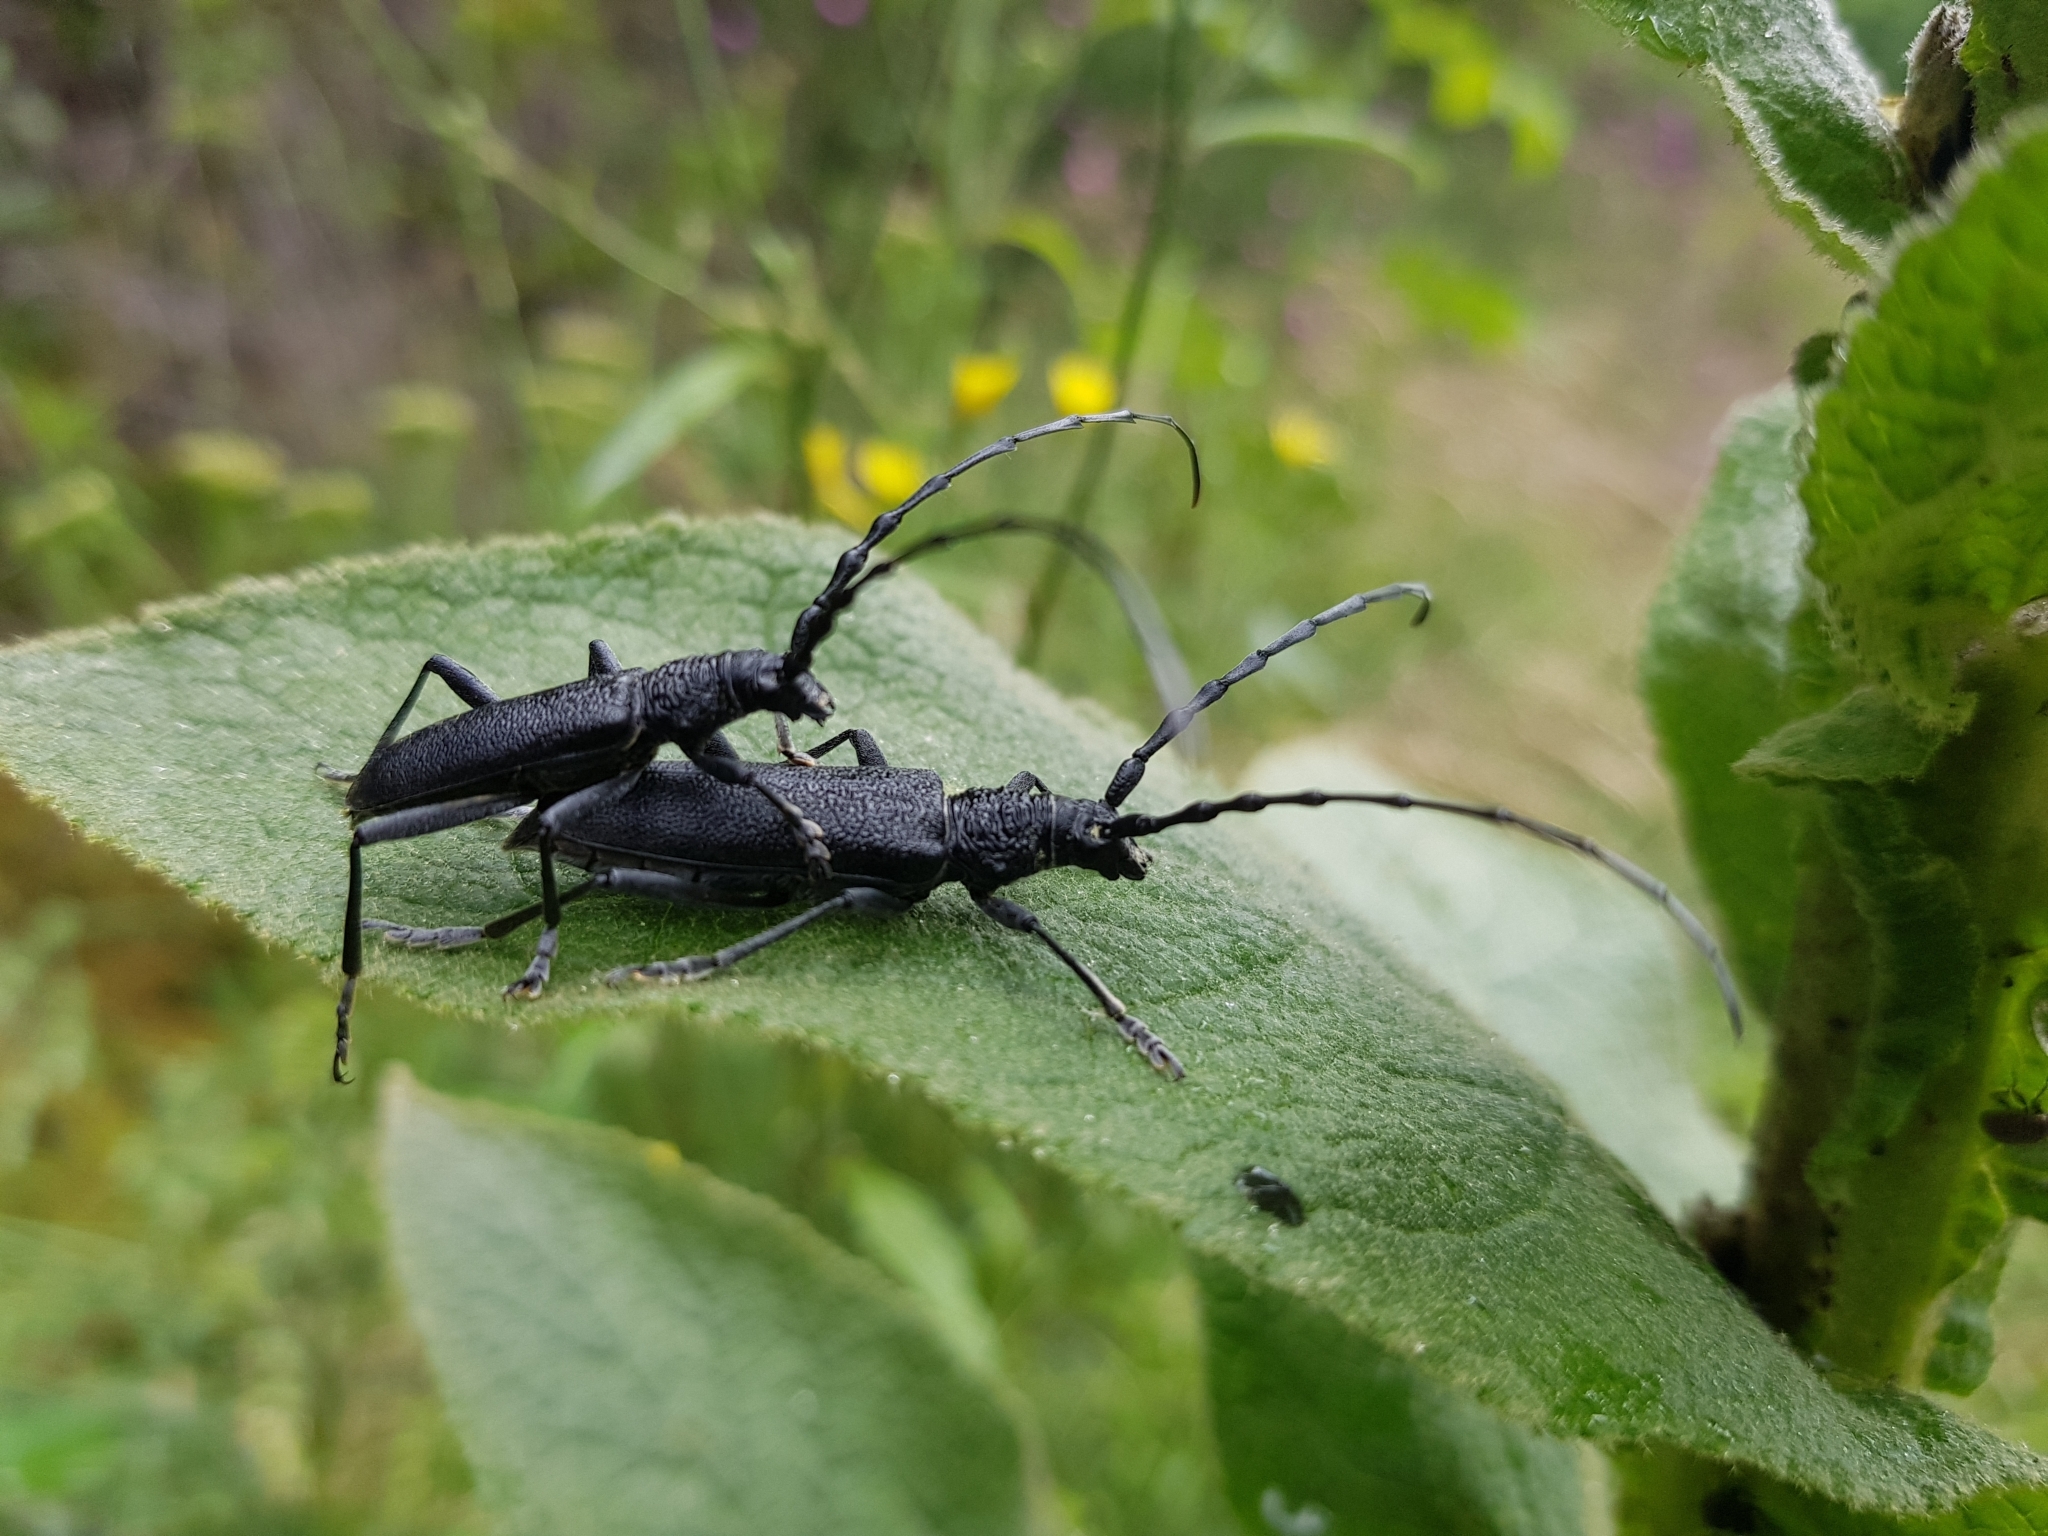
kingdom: Animalia
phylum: Arthropoda
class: Insecta
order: Coleoptera
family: Cerambycidae
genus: Cerambyx
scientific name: Cerambyx scopolii
